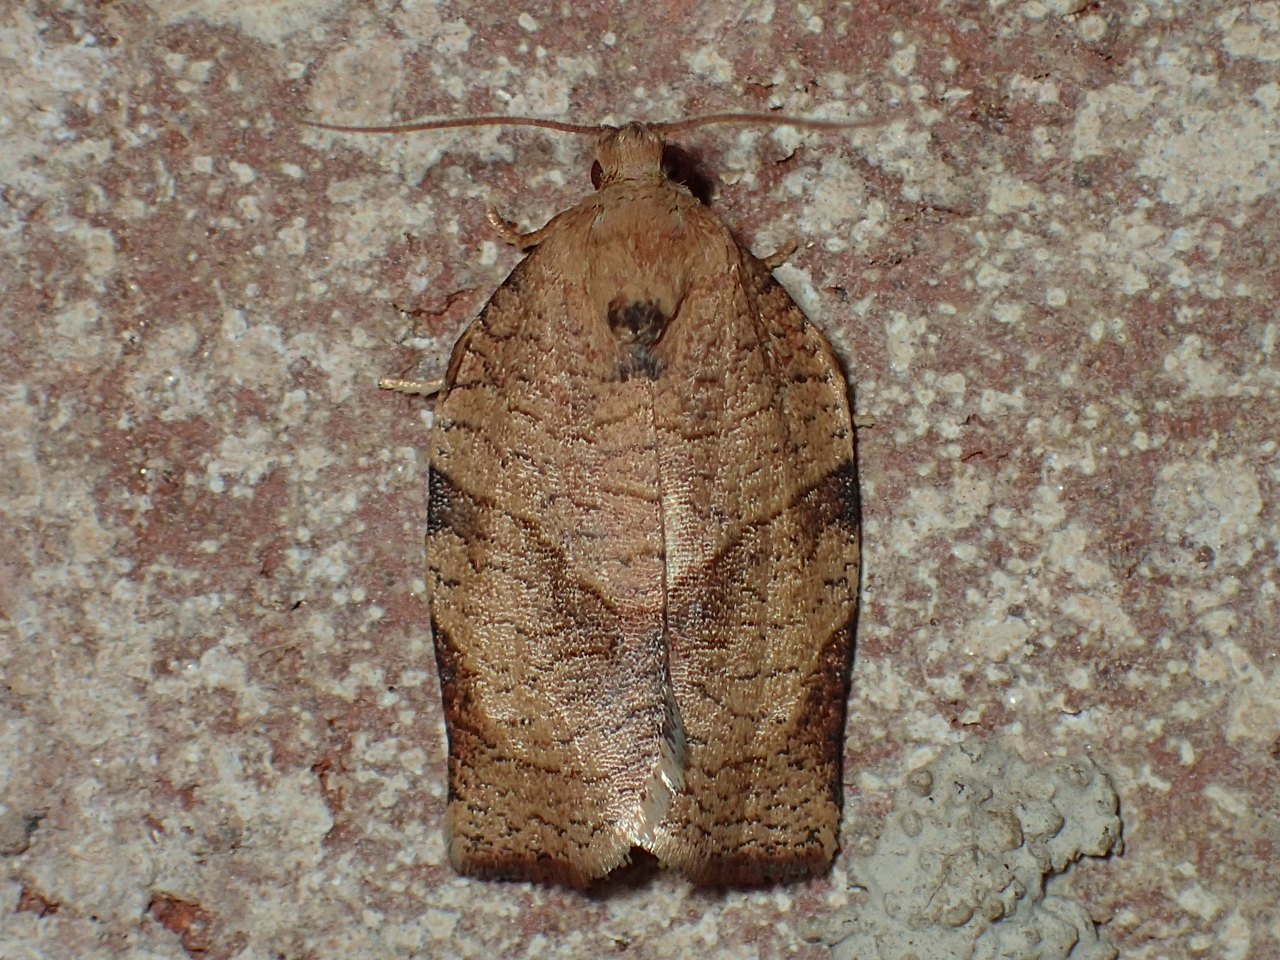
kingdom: Animalia
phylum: Arthropoda
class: Insecta
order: Lepidoptera
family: Tortricidae
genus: Choristoneura
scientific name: Choristoneura rosaceana
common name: Oblique-banded leafroller moth
